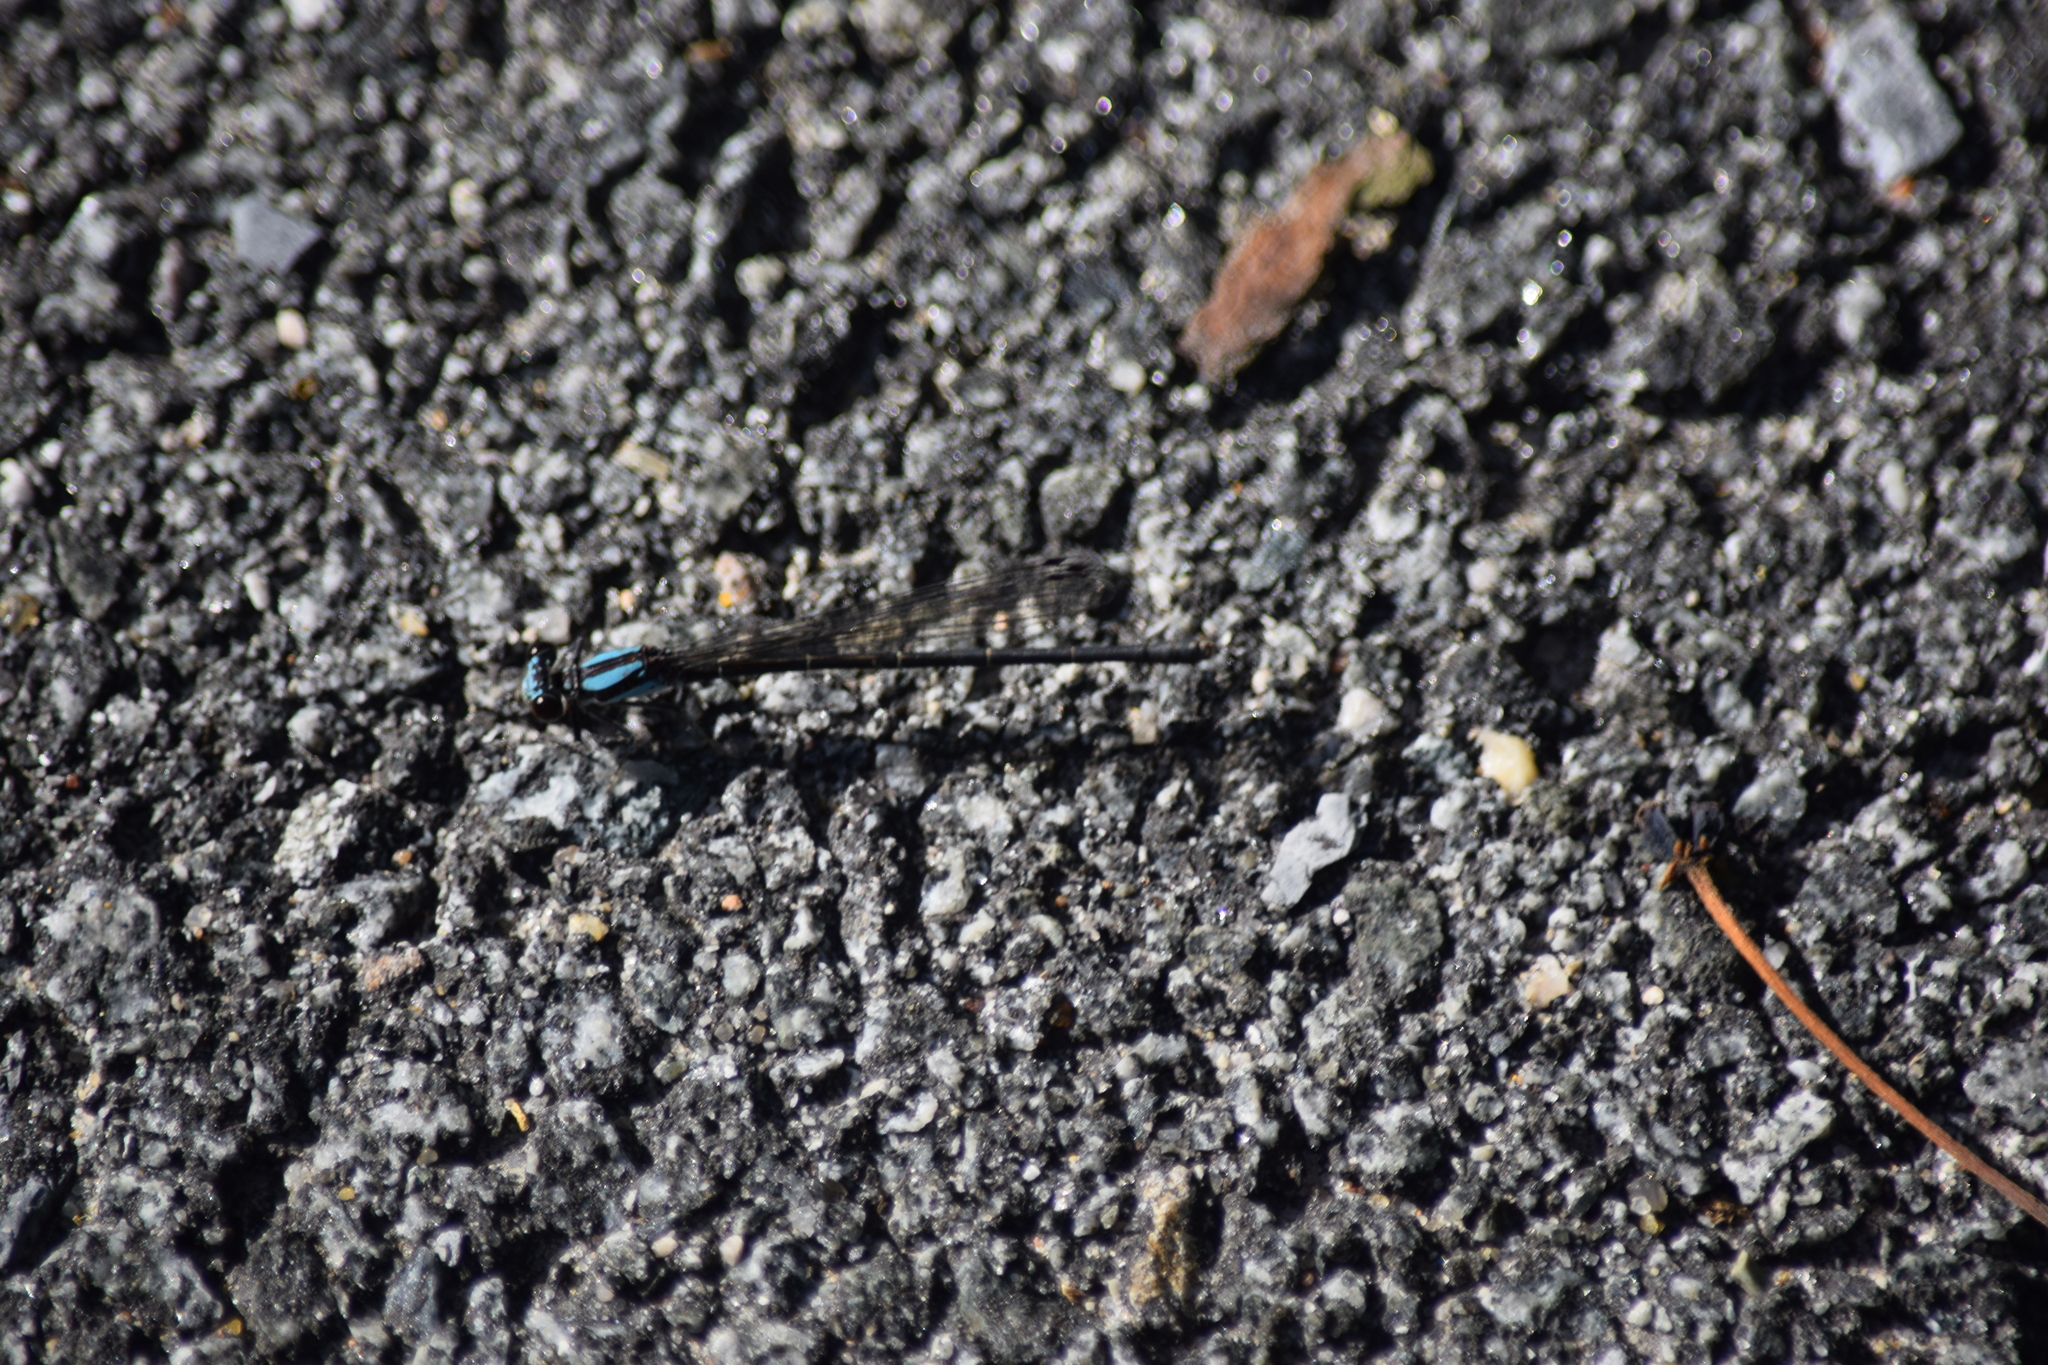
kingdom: Animalia
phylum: Arthropoda
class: Insecta
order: Odonata
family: Coenagrionidae
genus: Argia
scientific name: Argia tibialis
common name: Blue-tipped dancer
